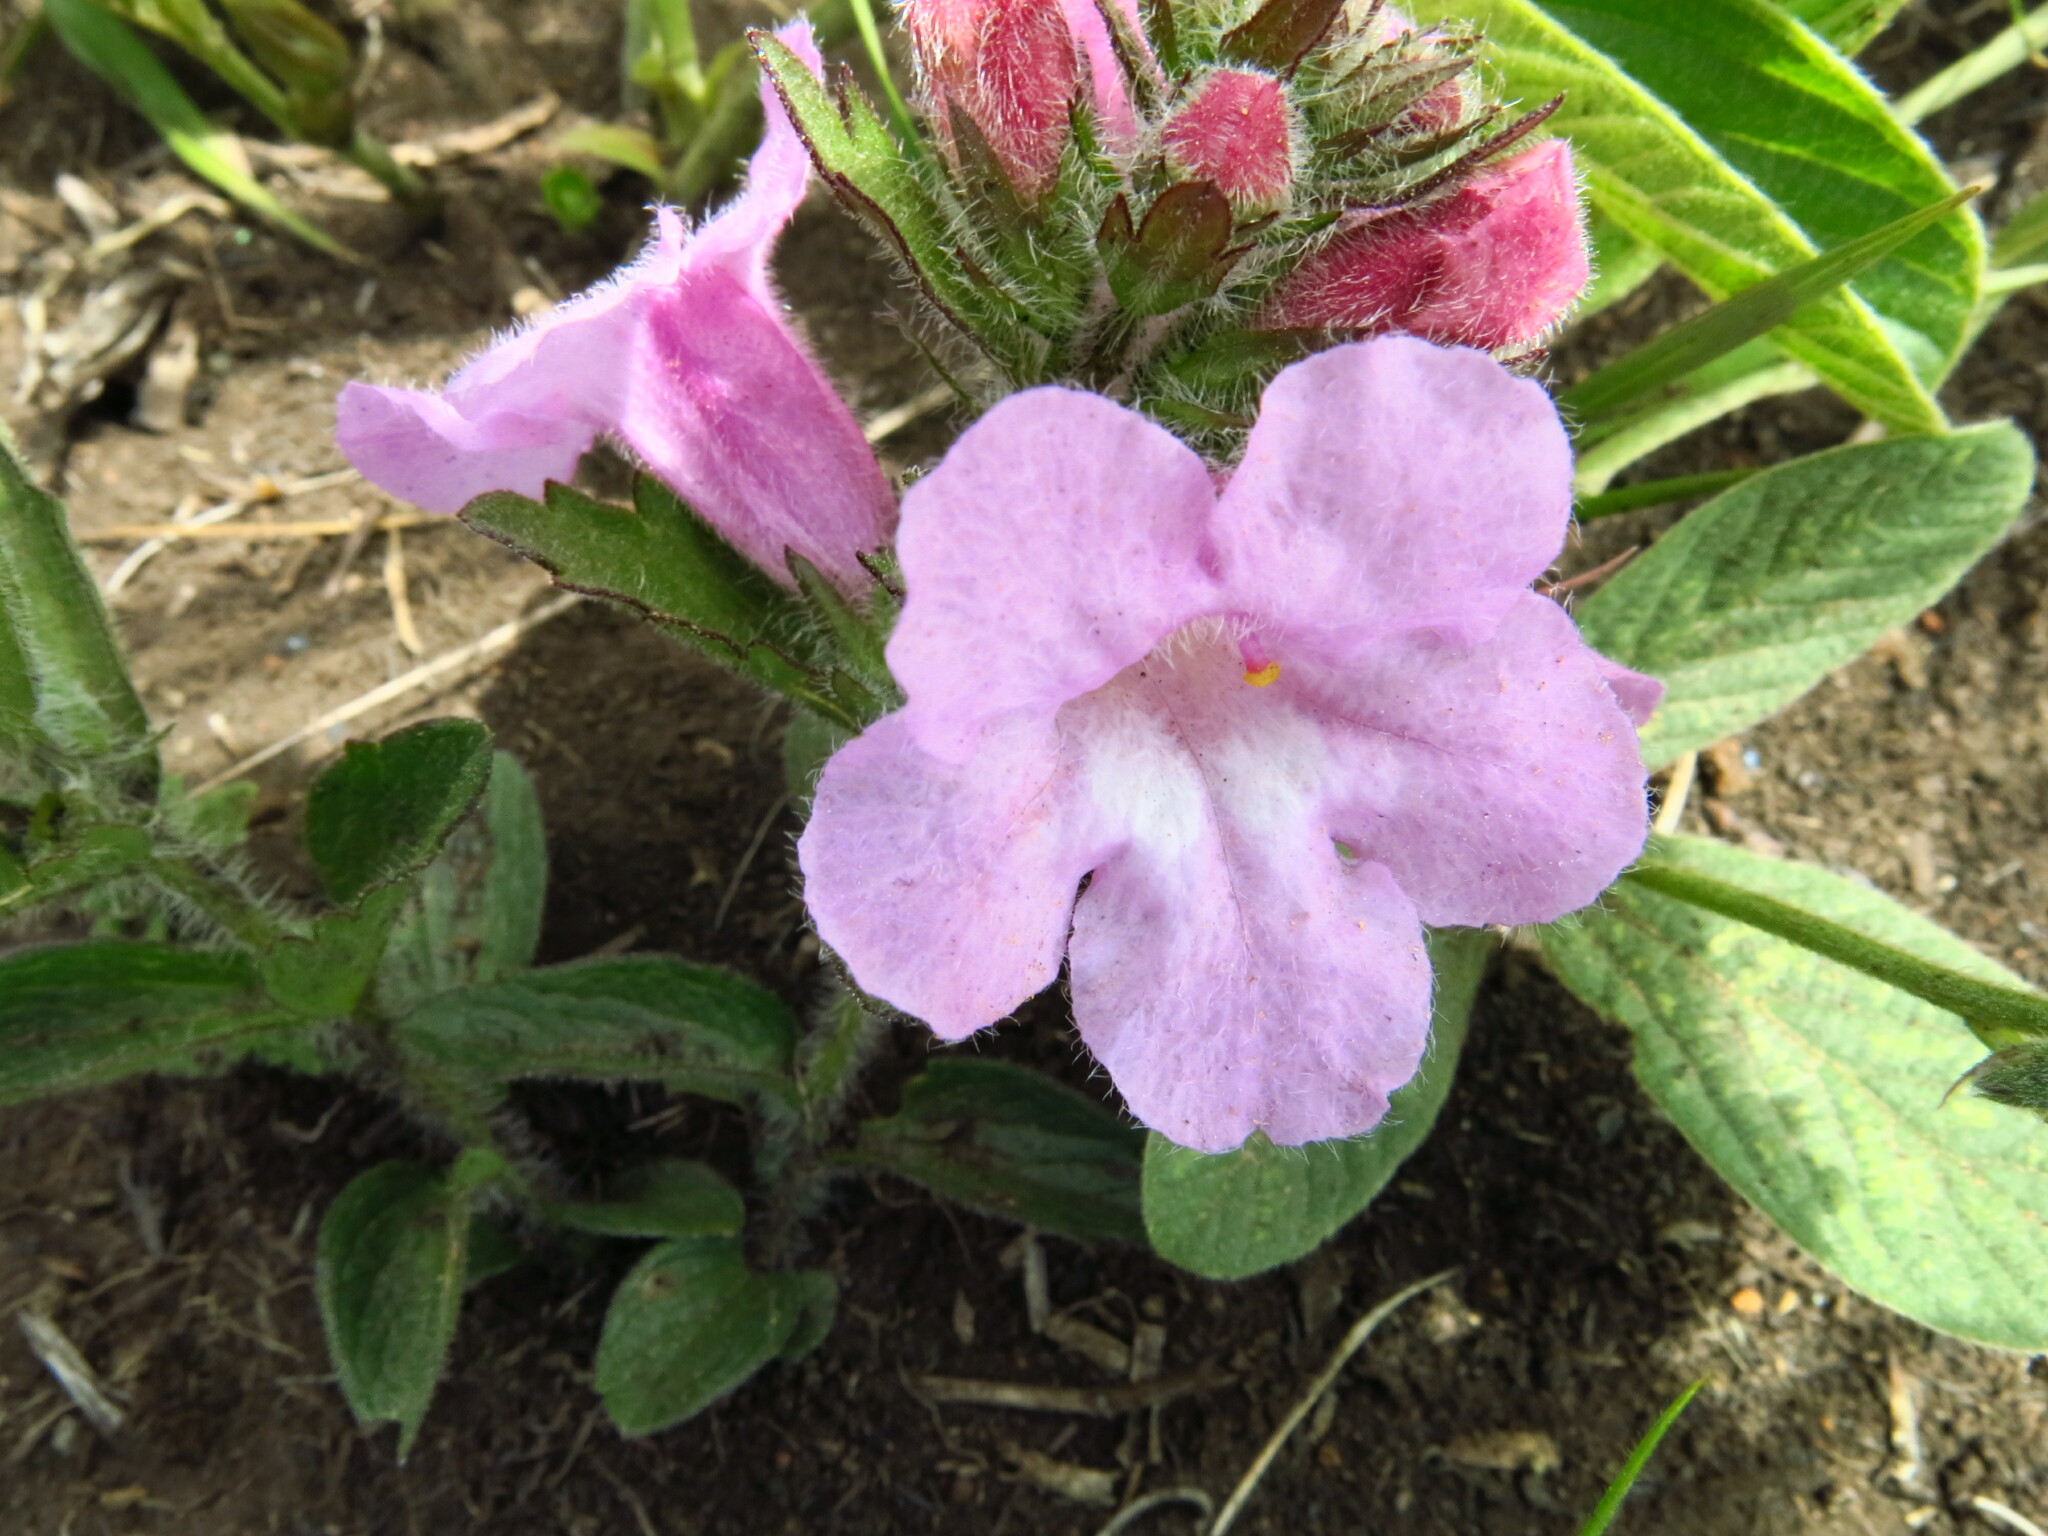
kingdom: Plantae
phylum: Tracheophyta
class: Magnoliopsida
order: Lamiales
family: Orobanchaceae
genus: Graderia
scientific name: Graderia scabra
